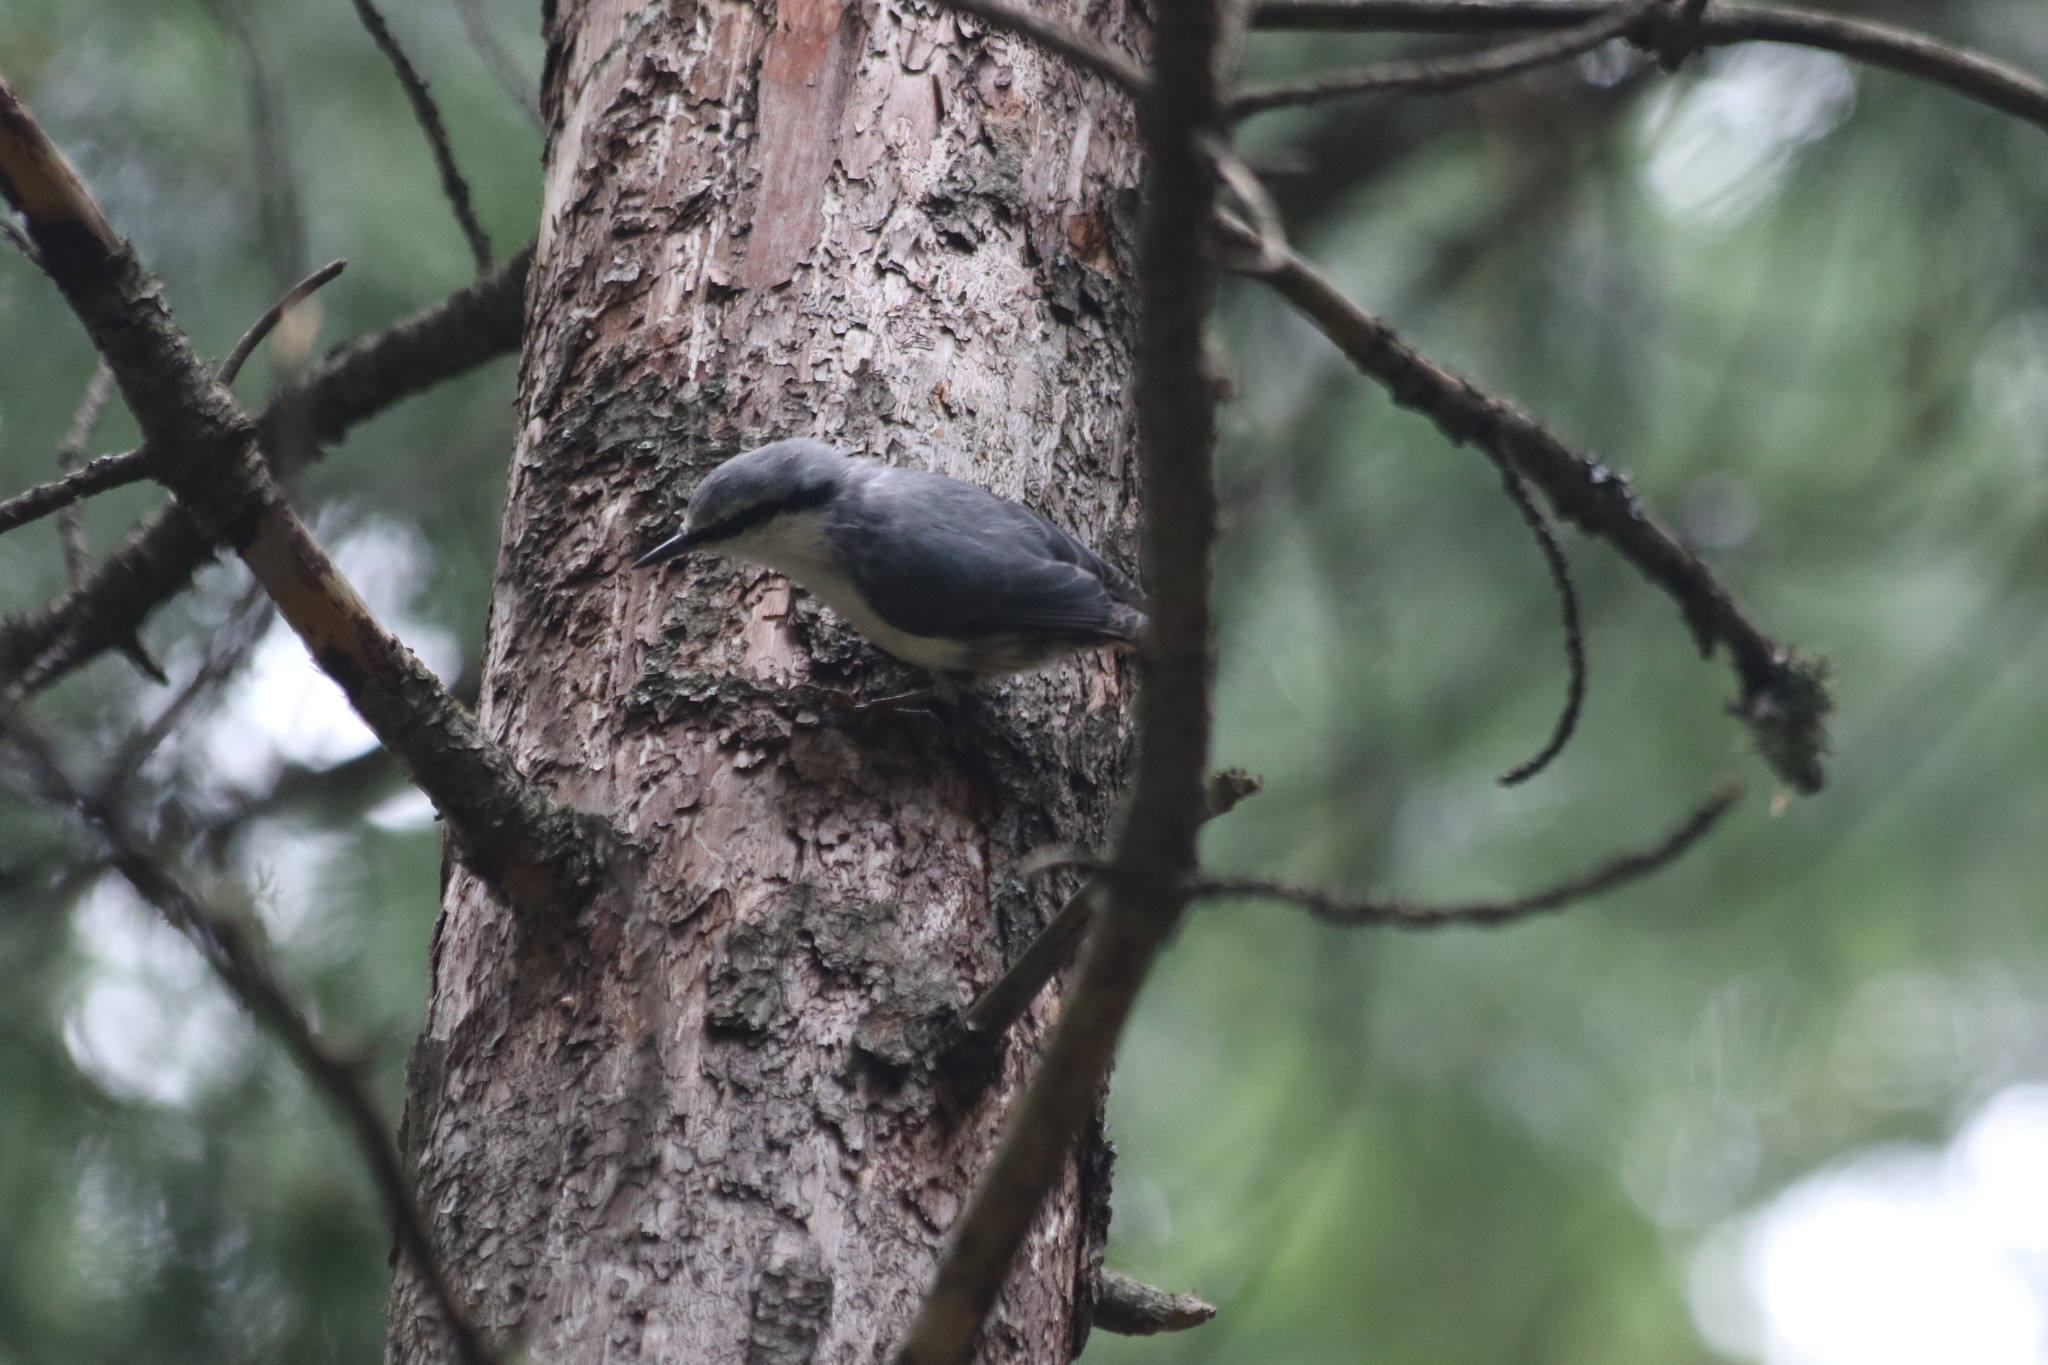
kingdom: Animalia
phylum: Chordata
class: Aves
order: Passeriformes
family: Sittidae
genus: Sitta
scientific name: Sitta europaea
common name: Eurasian nuthatch
